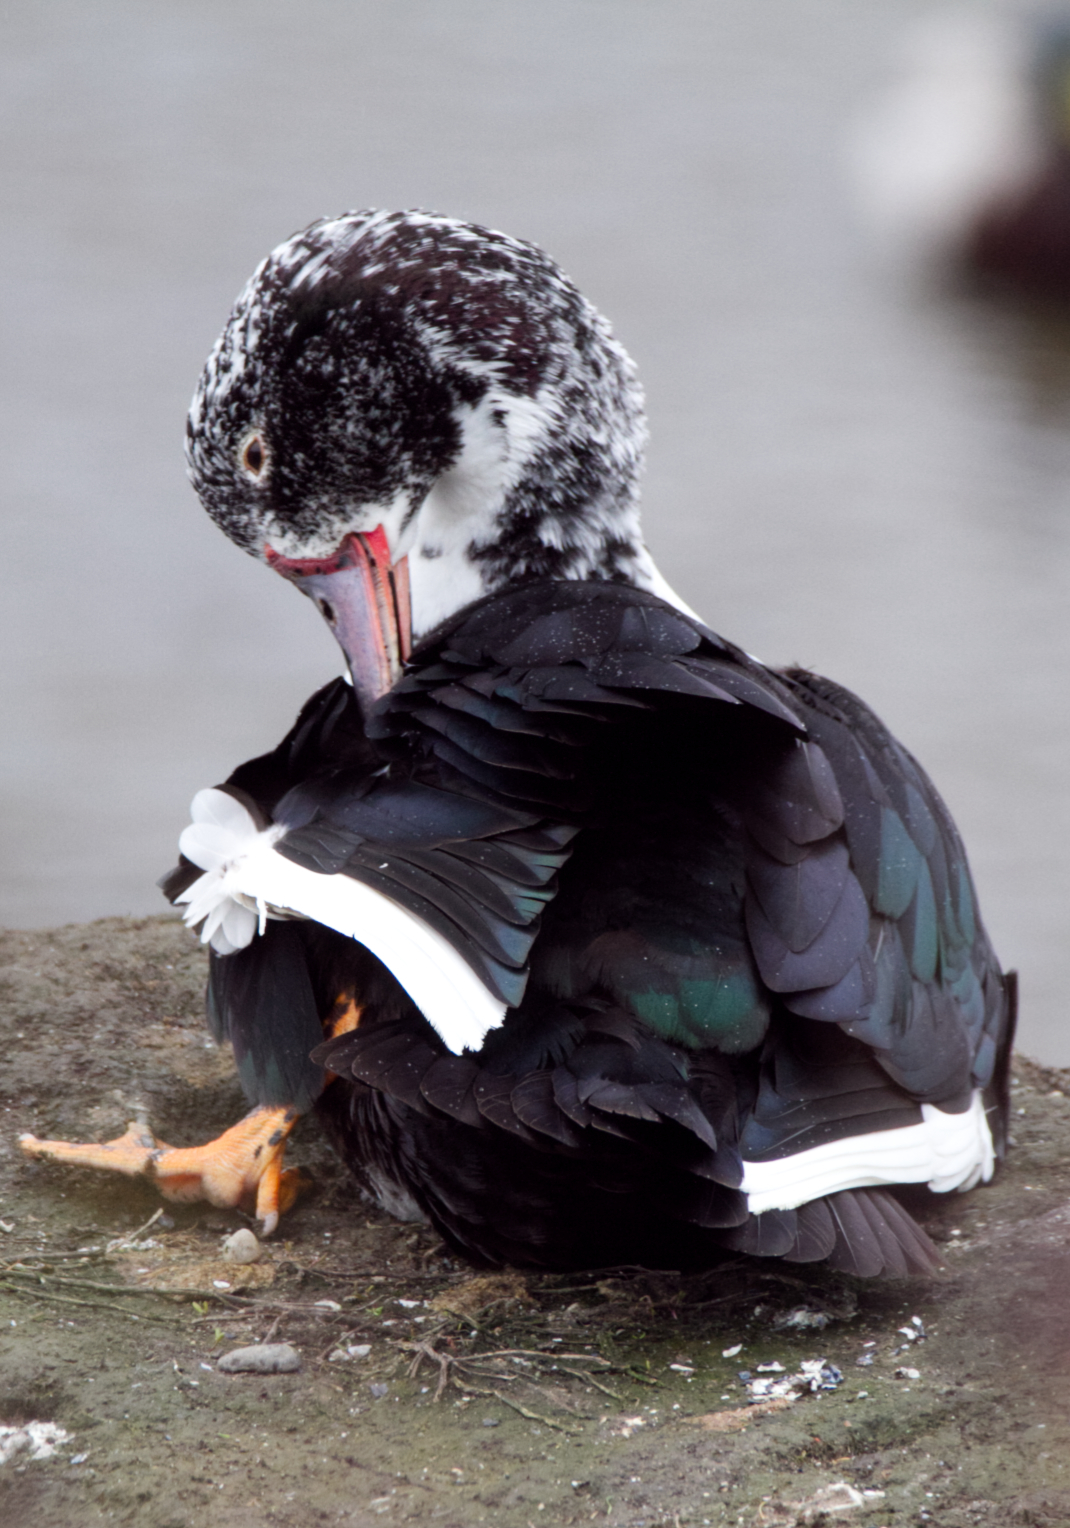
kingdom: Animalia
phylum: Chordata
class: Aves
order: Anseriformes
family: Anatidae
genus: Cairina
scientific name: Cairina moschata
